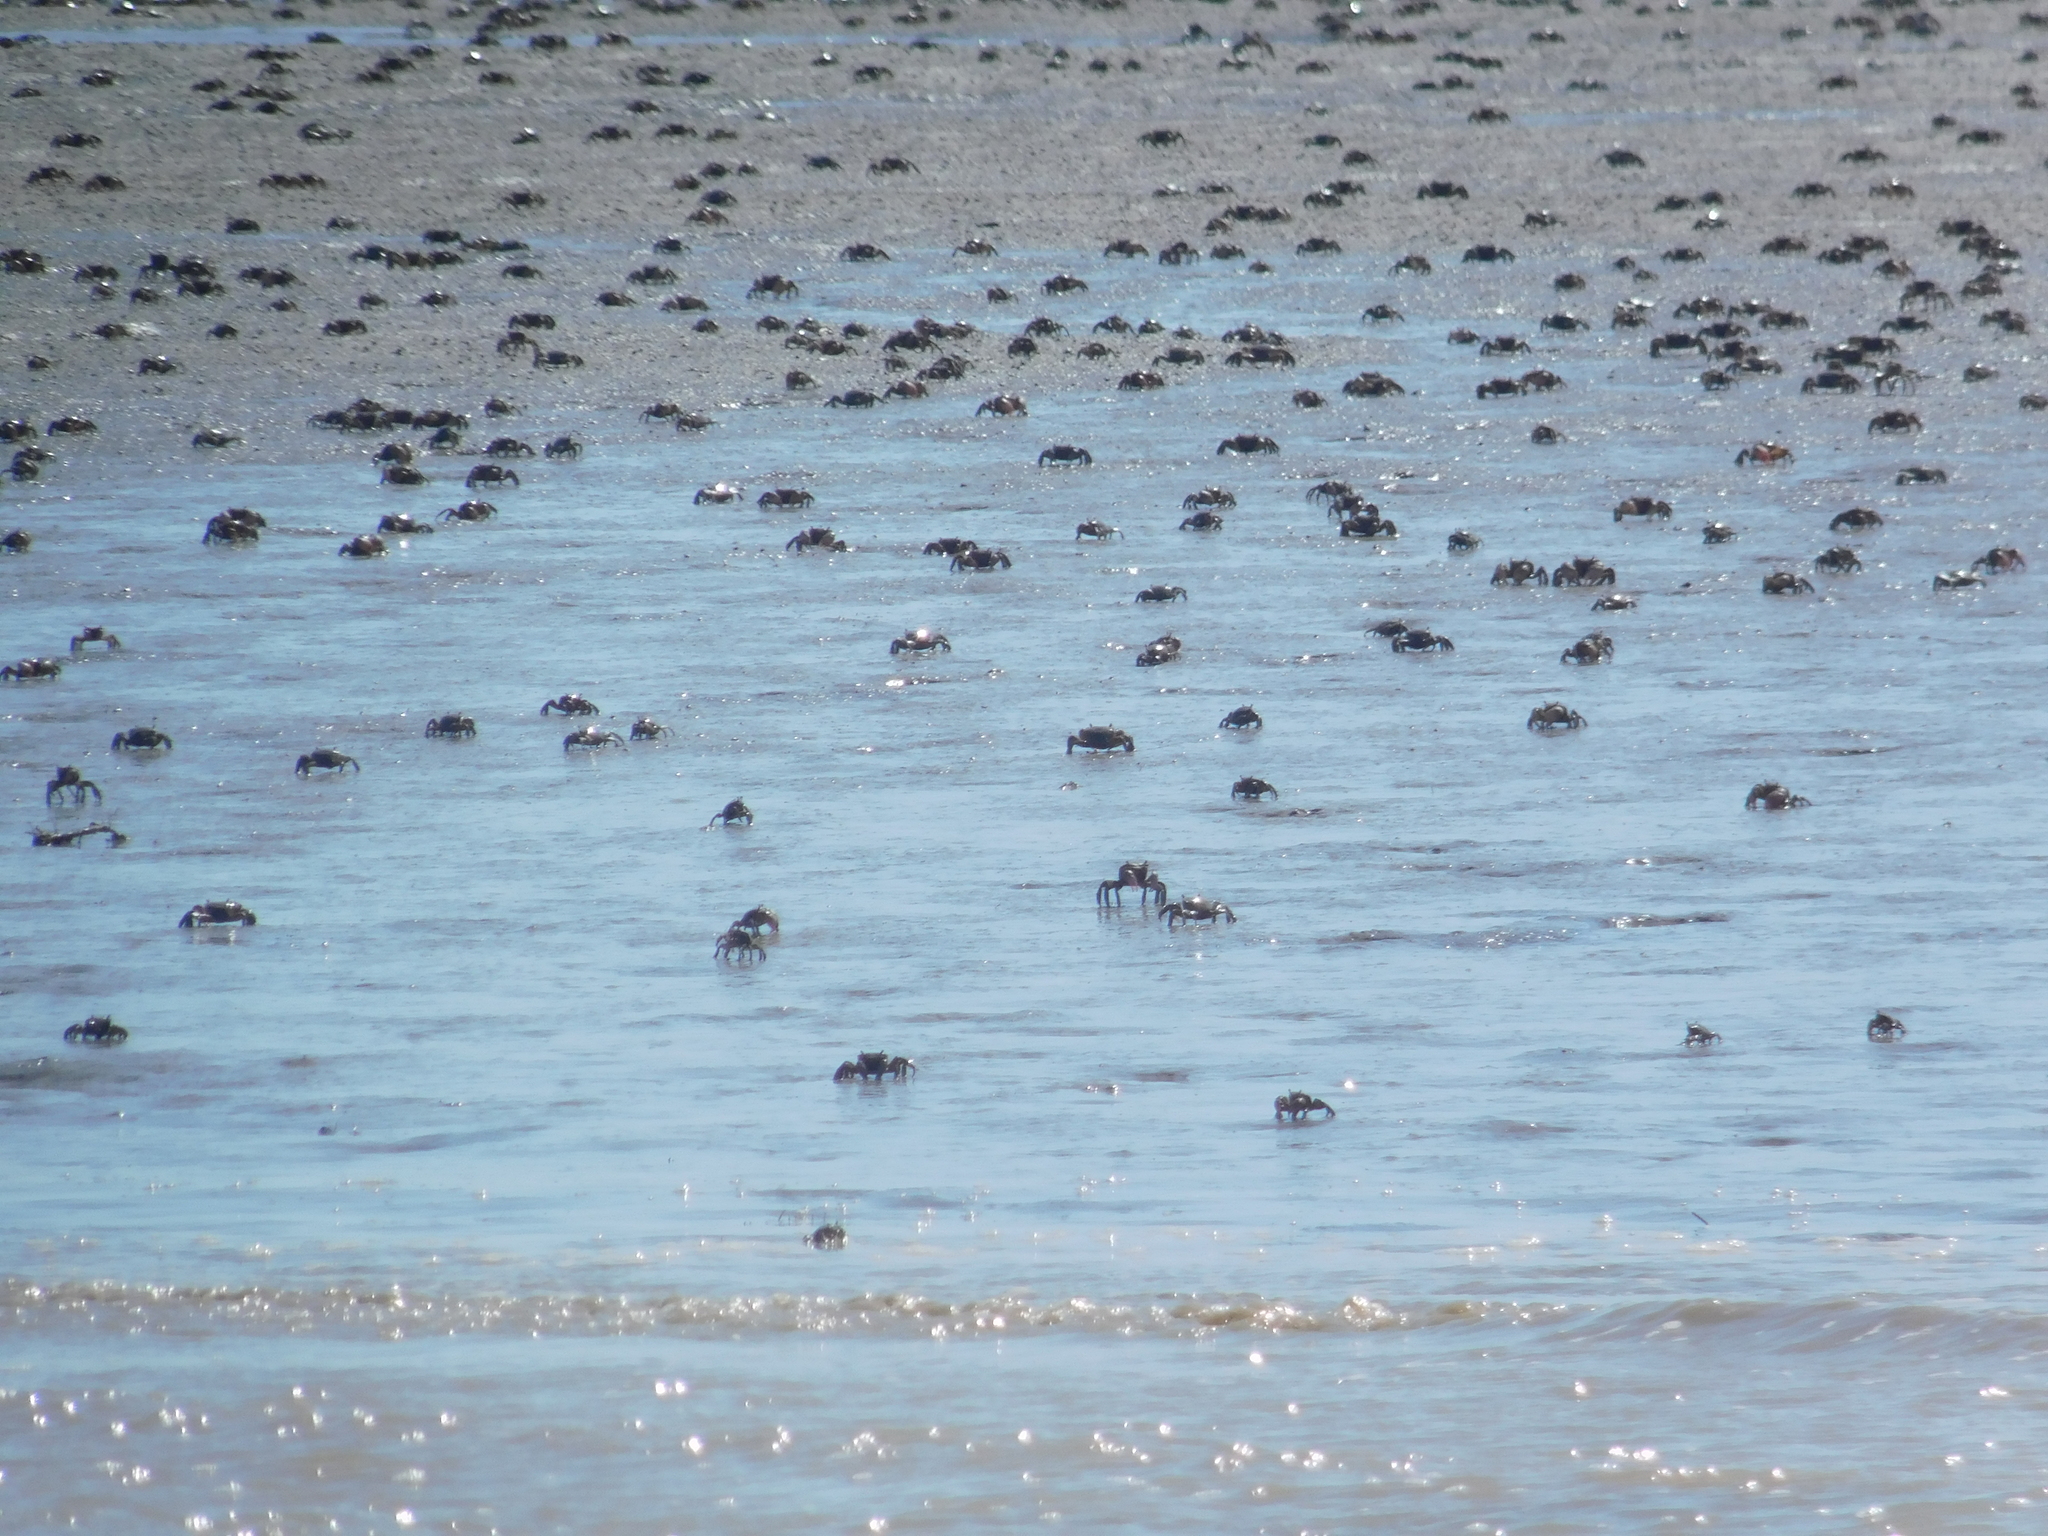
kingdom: Animalia
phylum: Arthropoda
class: Malacostraca
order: Decapoda
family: Varunidae
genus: Neohelice
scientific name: Neohelice granulata
